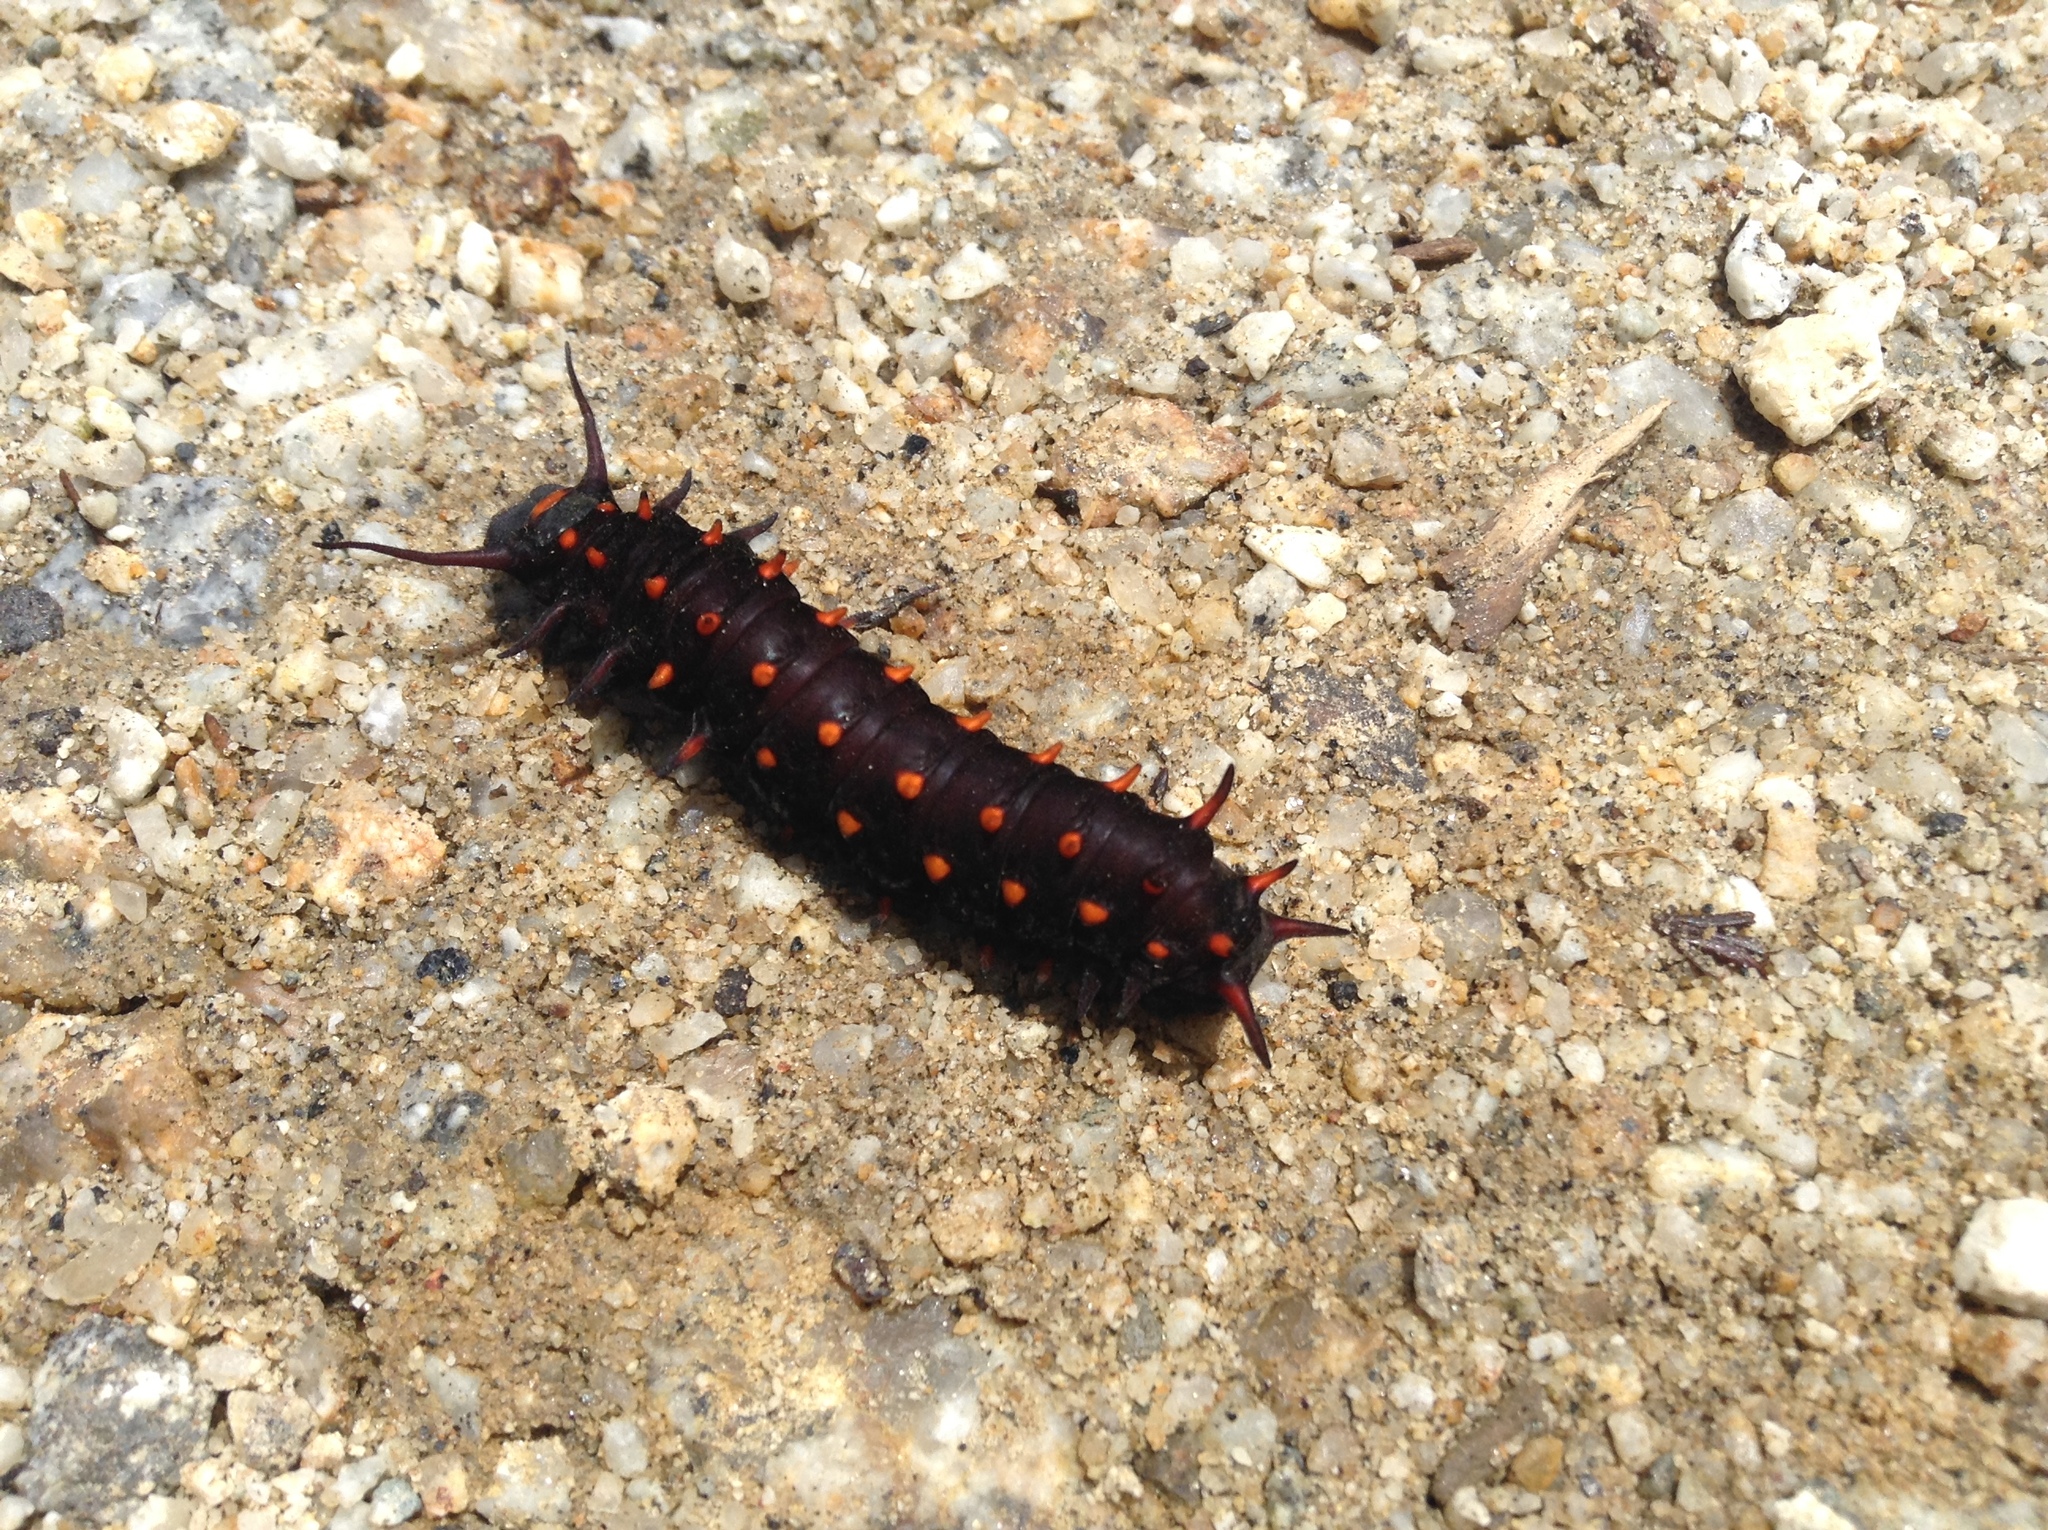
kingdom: Animalia
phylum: Arthropoda
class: Insecta
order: Lepidoptera
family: Papilionidae
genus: Battus
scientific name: Battus philenor
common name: Pipevine swallowtail
